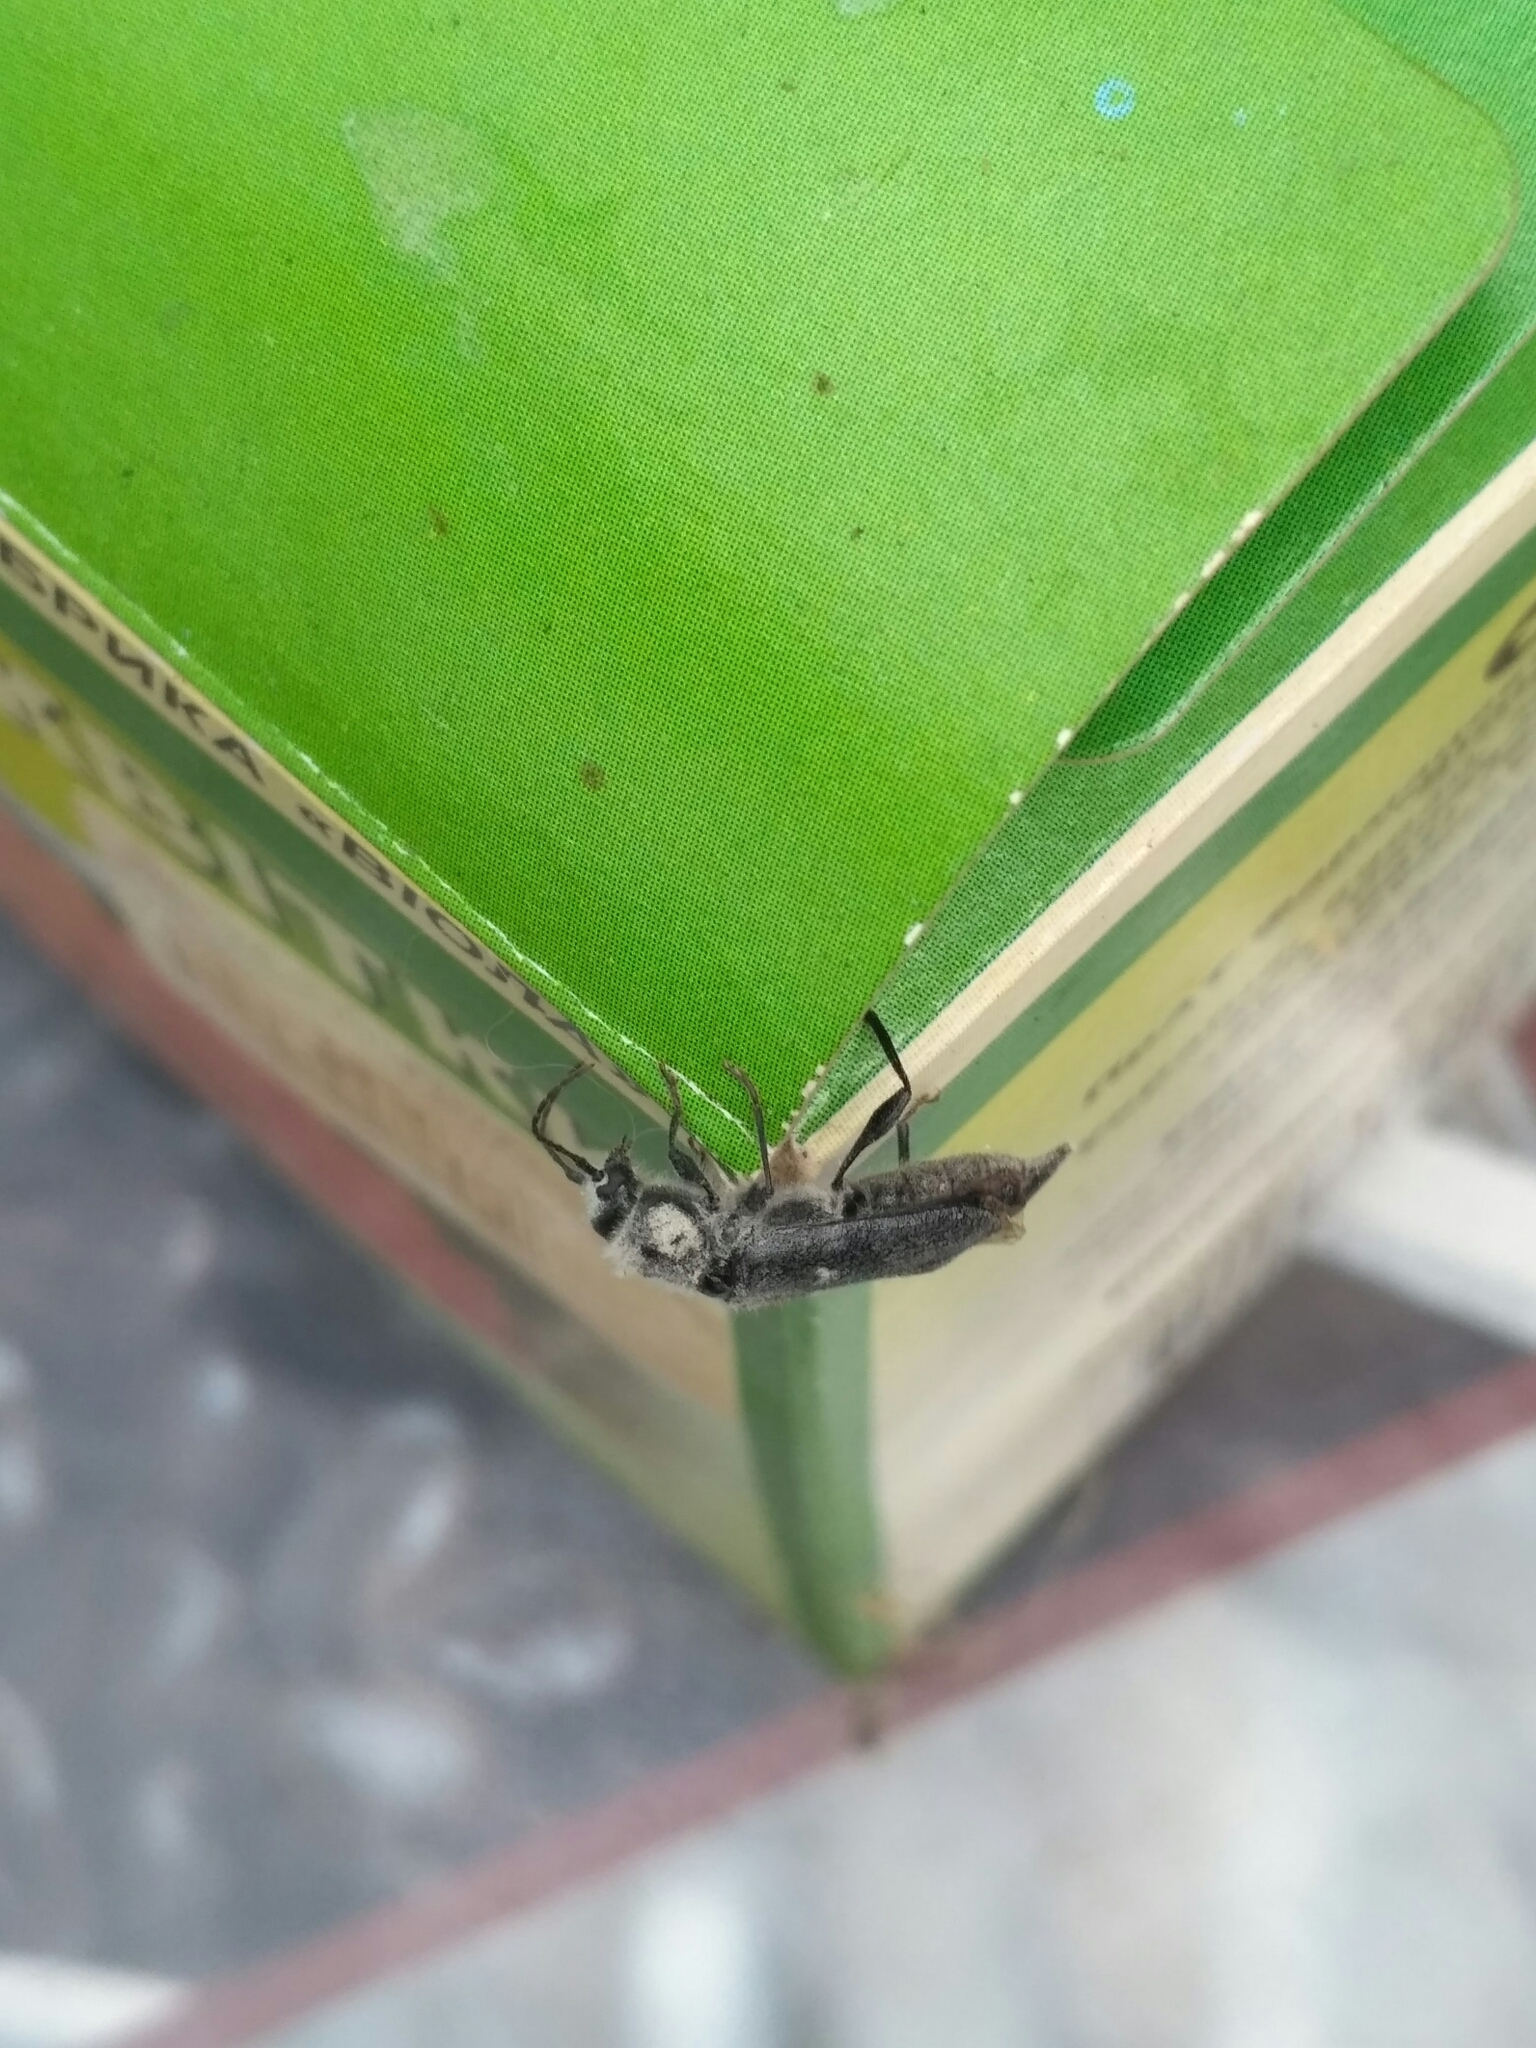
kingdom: Animalia
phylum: Arthropoda
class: Insecta
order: Coleoptera
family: Cerambycidae
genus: Hylotrupes
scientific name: Hylotrupes bajulus
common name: Old house borer
